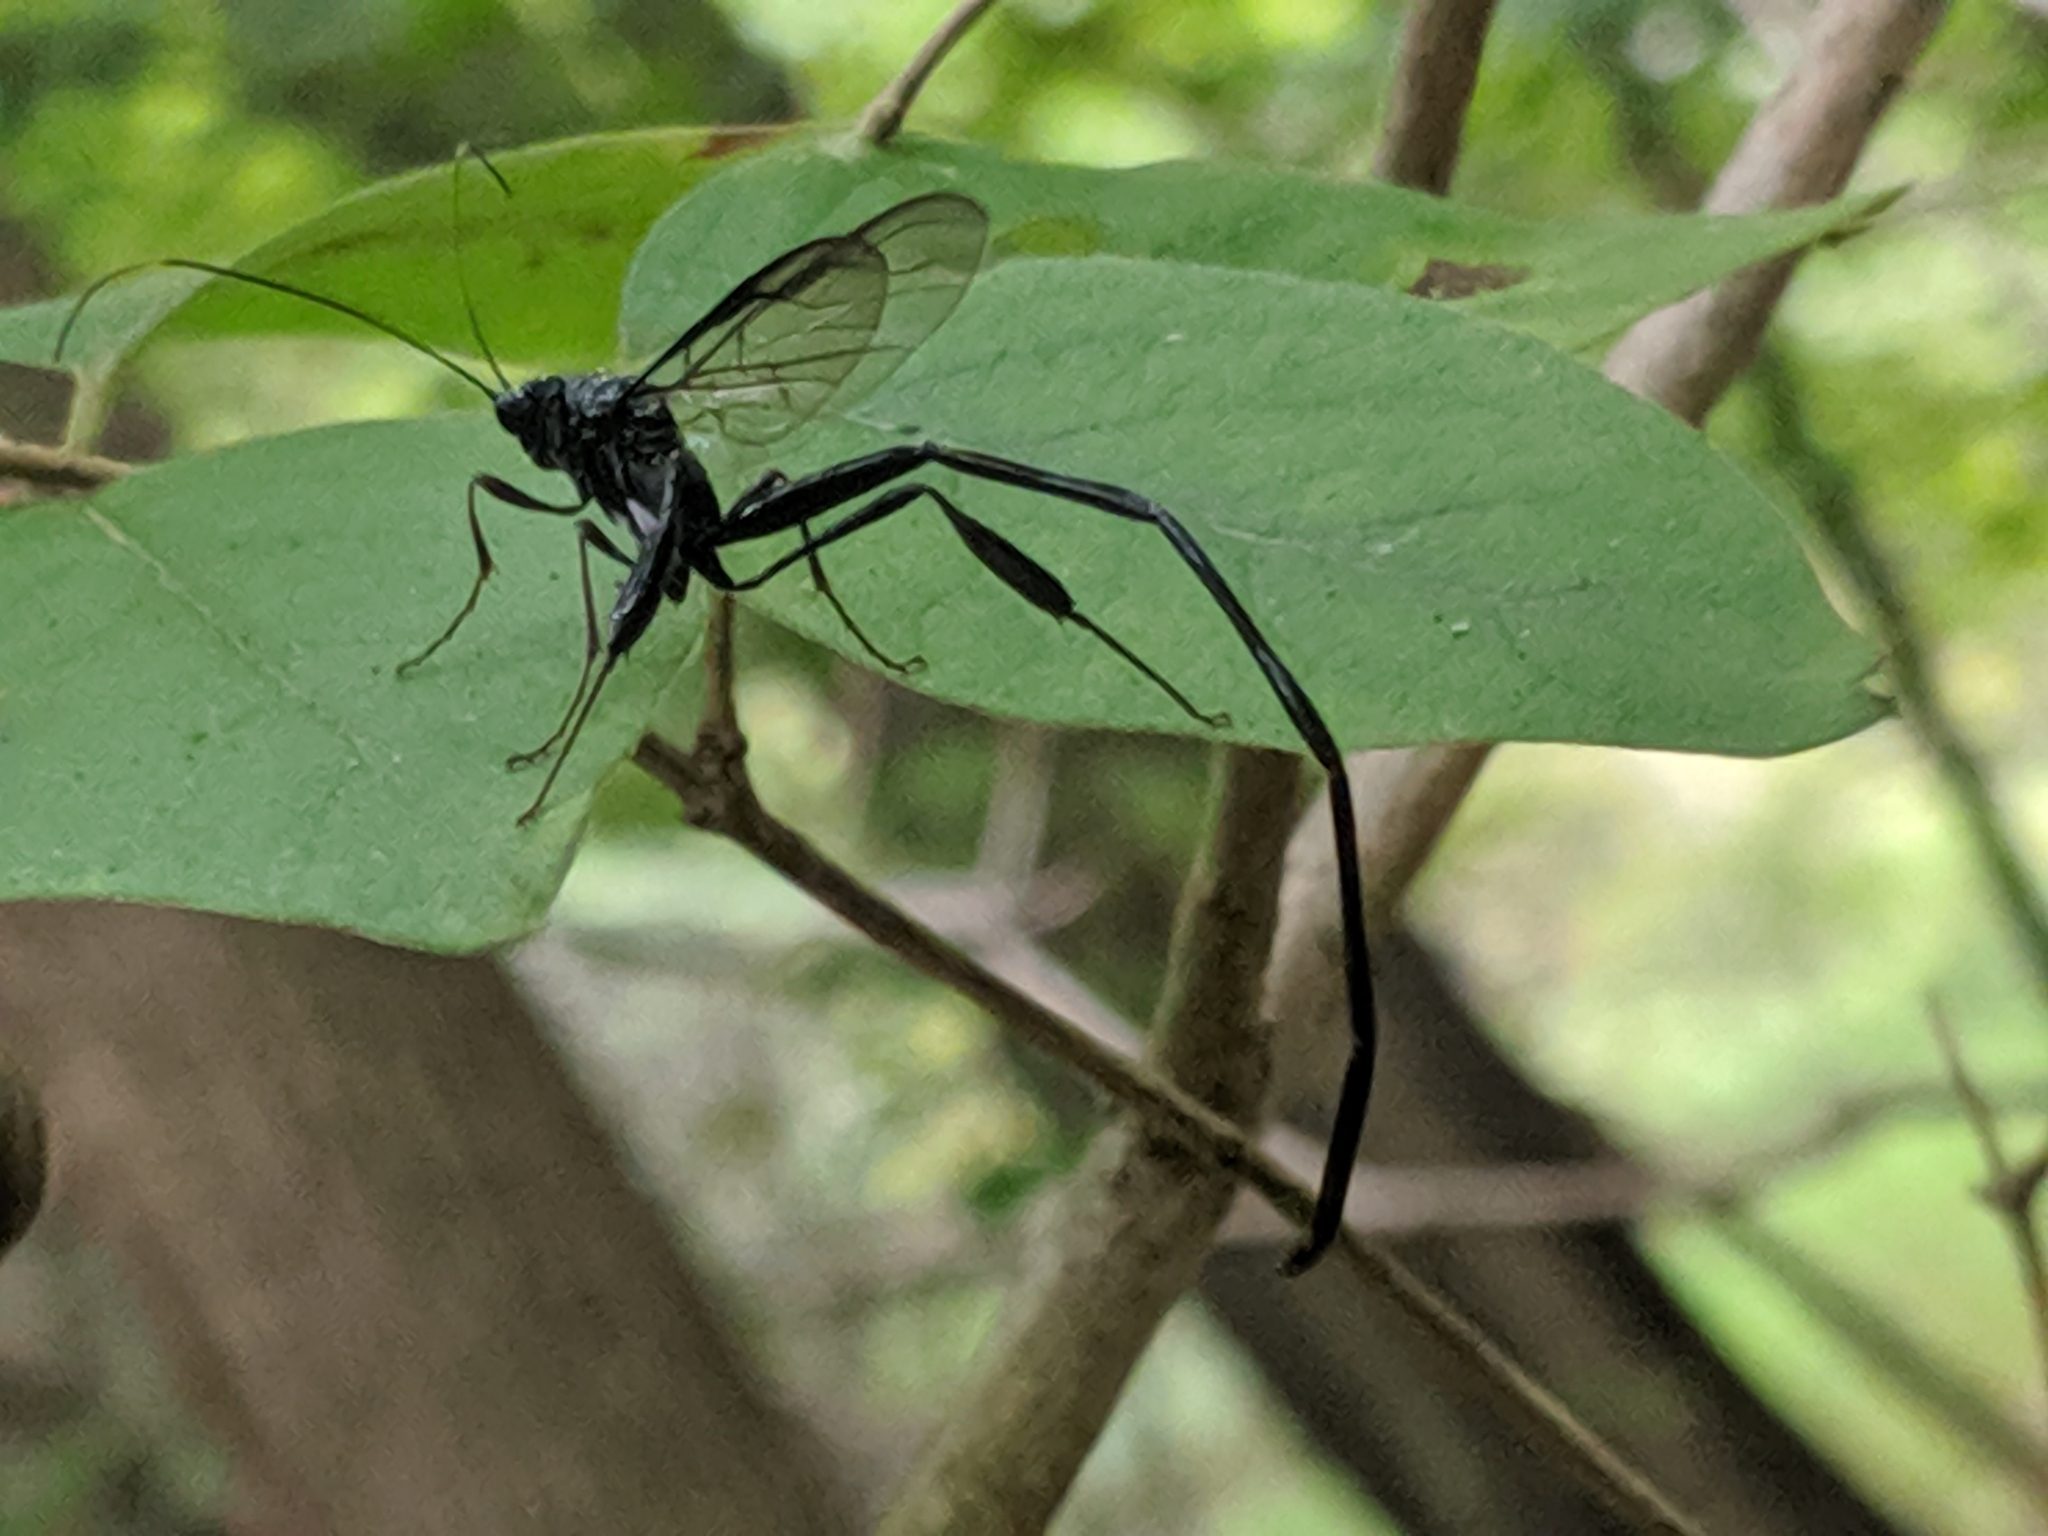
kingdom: Animalia
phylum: Arthropoda
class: Insecta
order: Hymenoptera
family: Pelecinidae
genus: Pelecinus
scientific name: Pelecinus polyturator
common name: American pelecinid wasp
